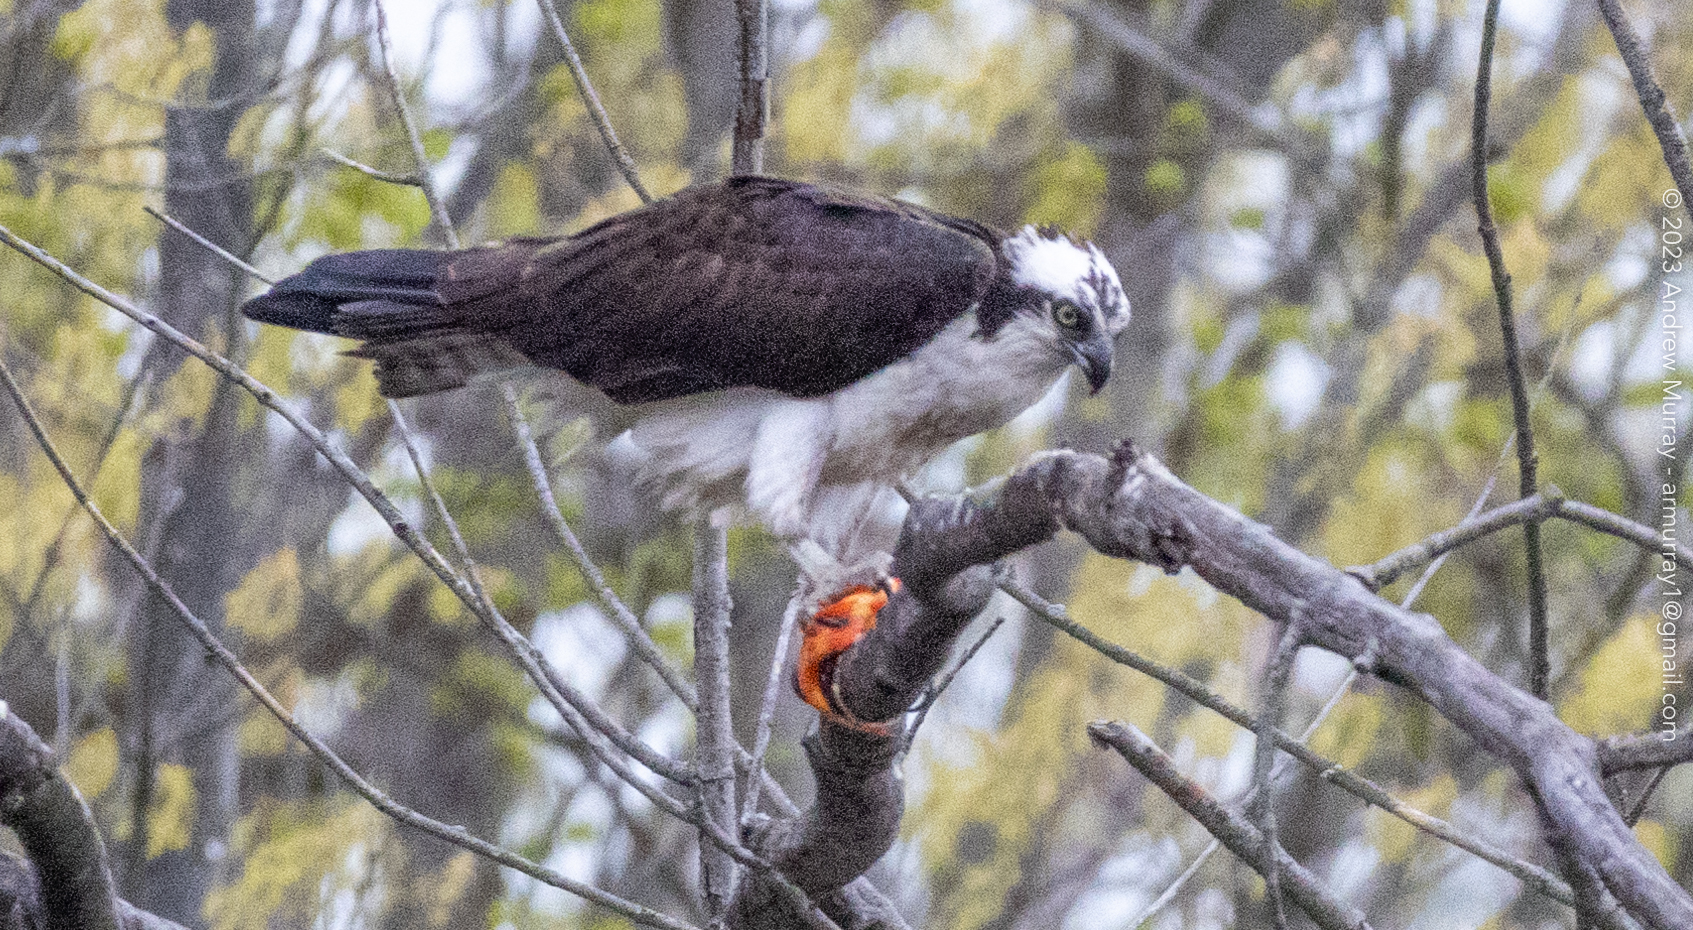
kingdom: Animalia
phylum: Chordata
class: Aves
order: Accipitriformes
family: Pandionidae
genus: Pandion
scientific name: Pandion haliaetus
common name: Osprey
